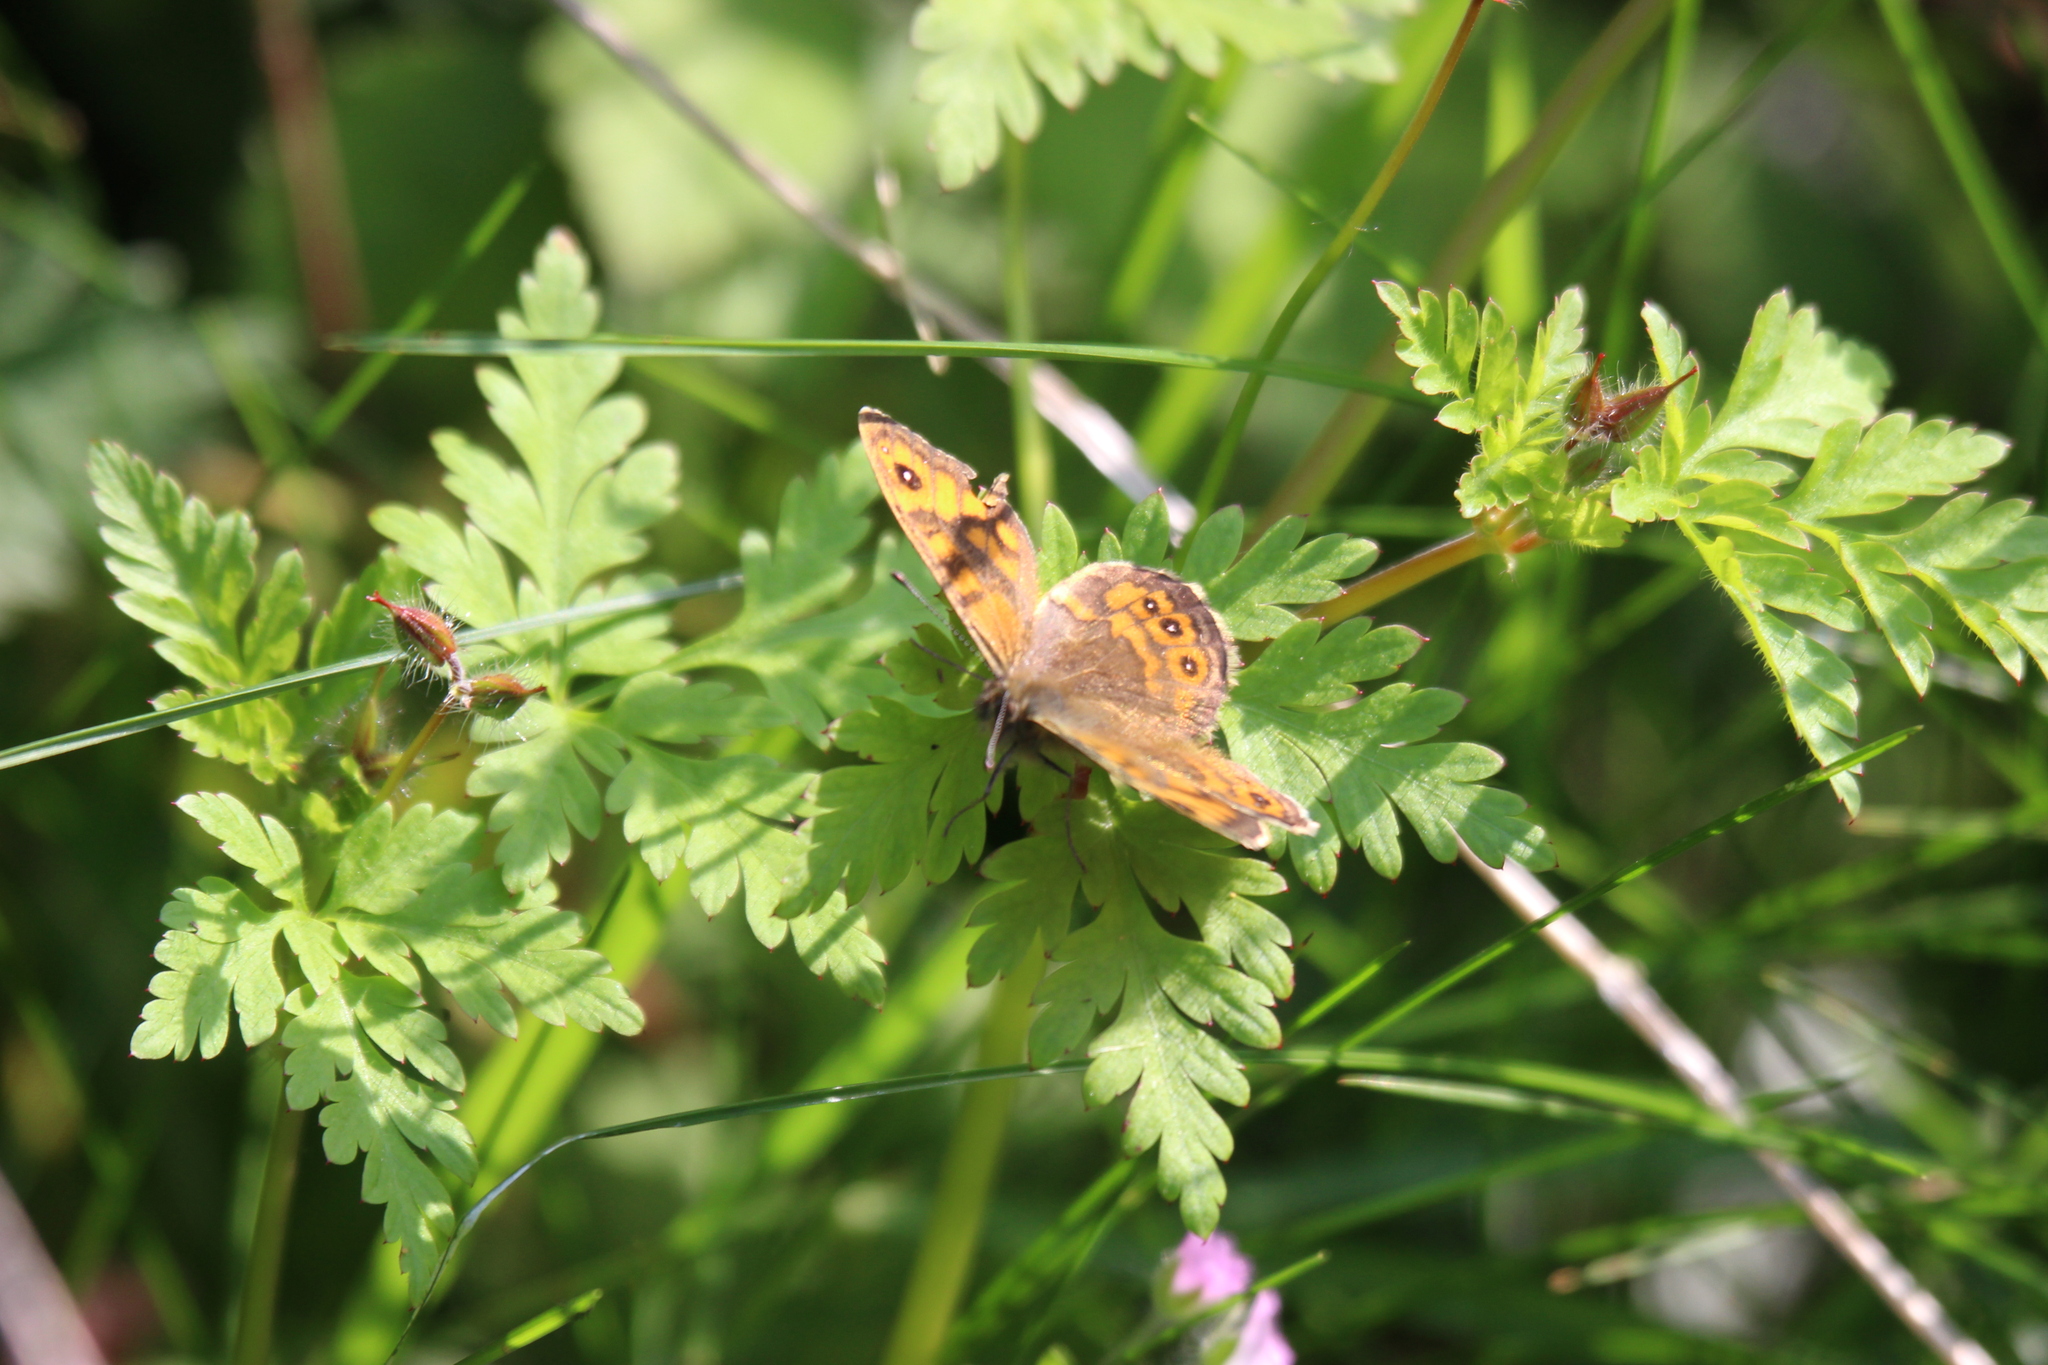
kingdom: Animalia
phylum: Arthropoda
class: Insecta
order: Lepidoptera
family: Nymphalidae
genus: Pararge
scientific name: Pararge Lasiommata megera
